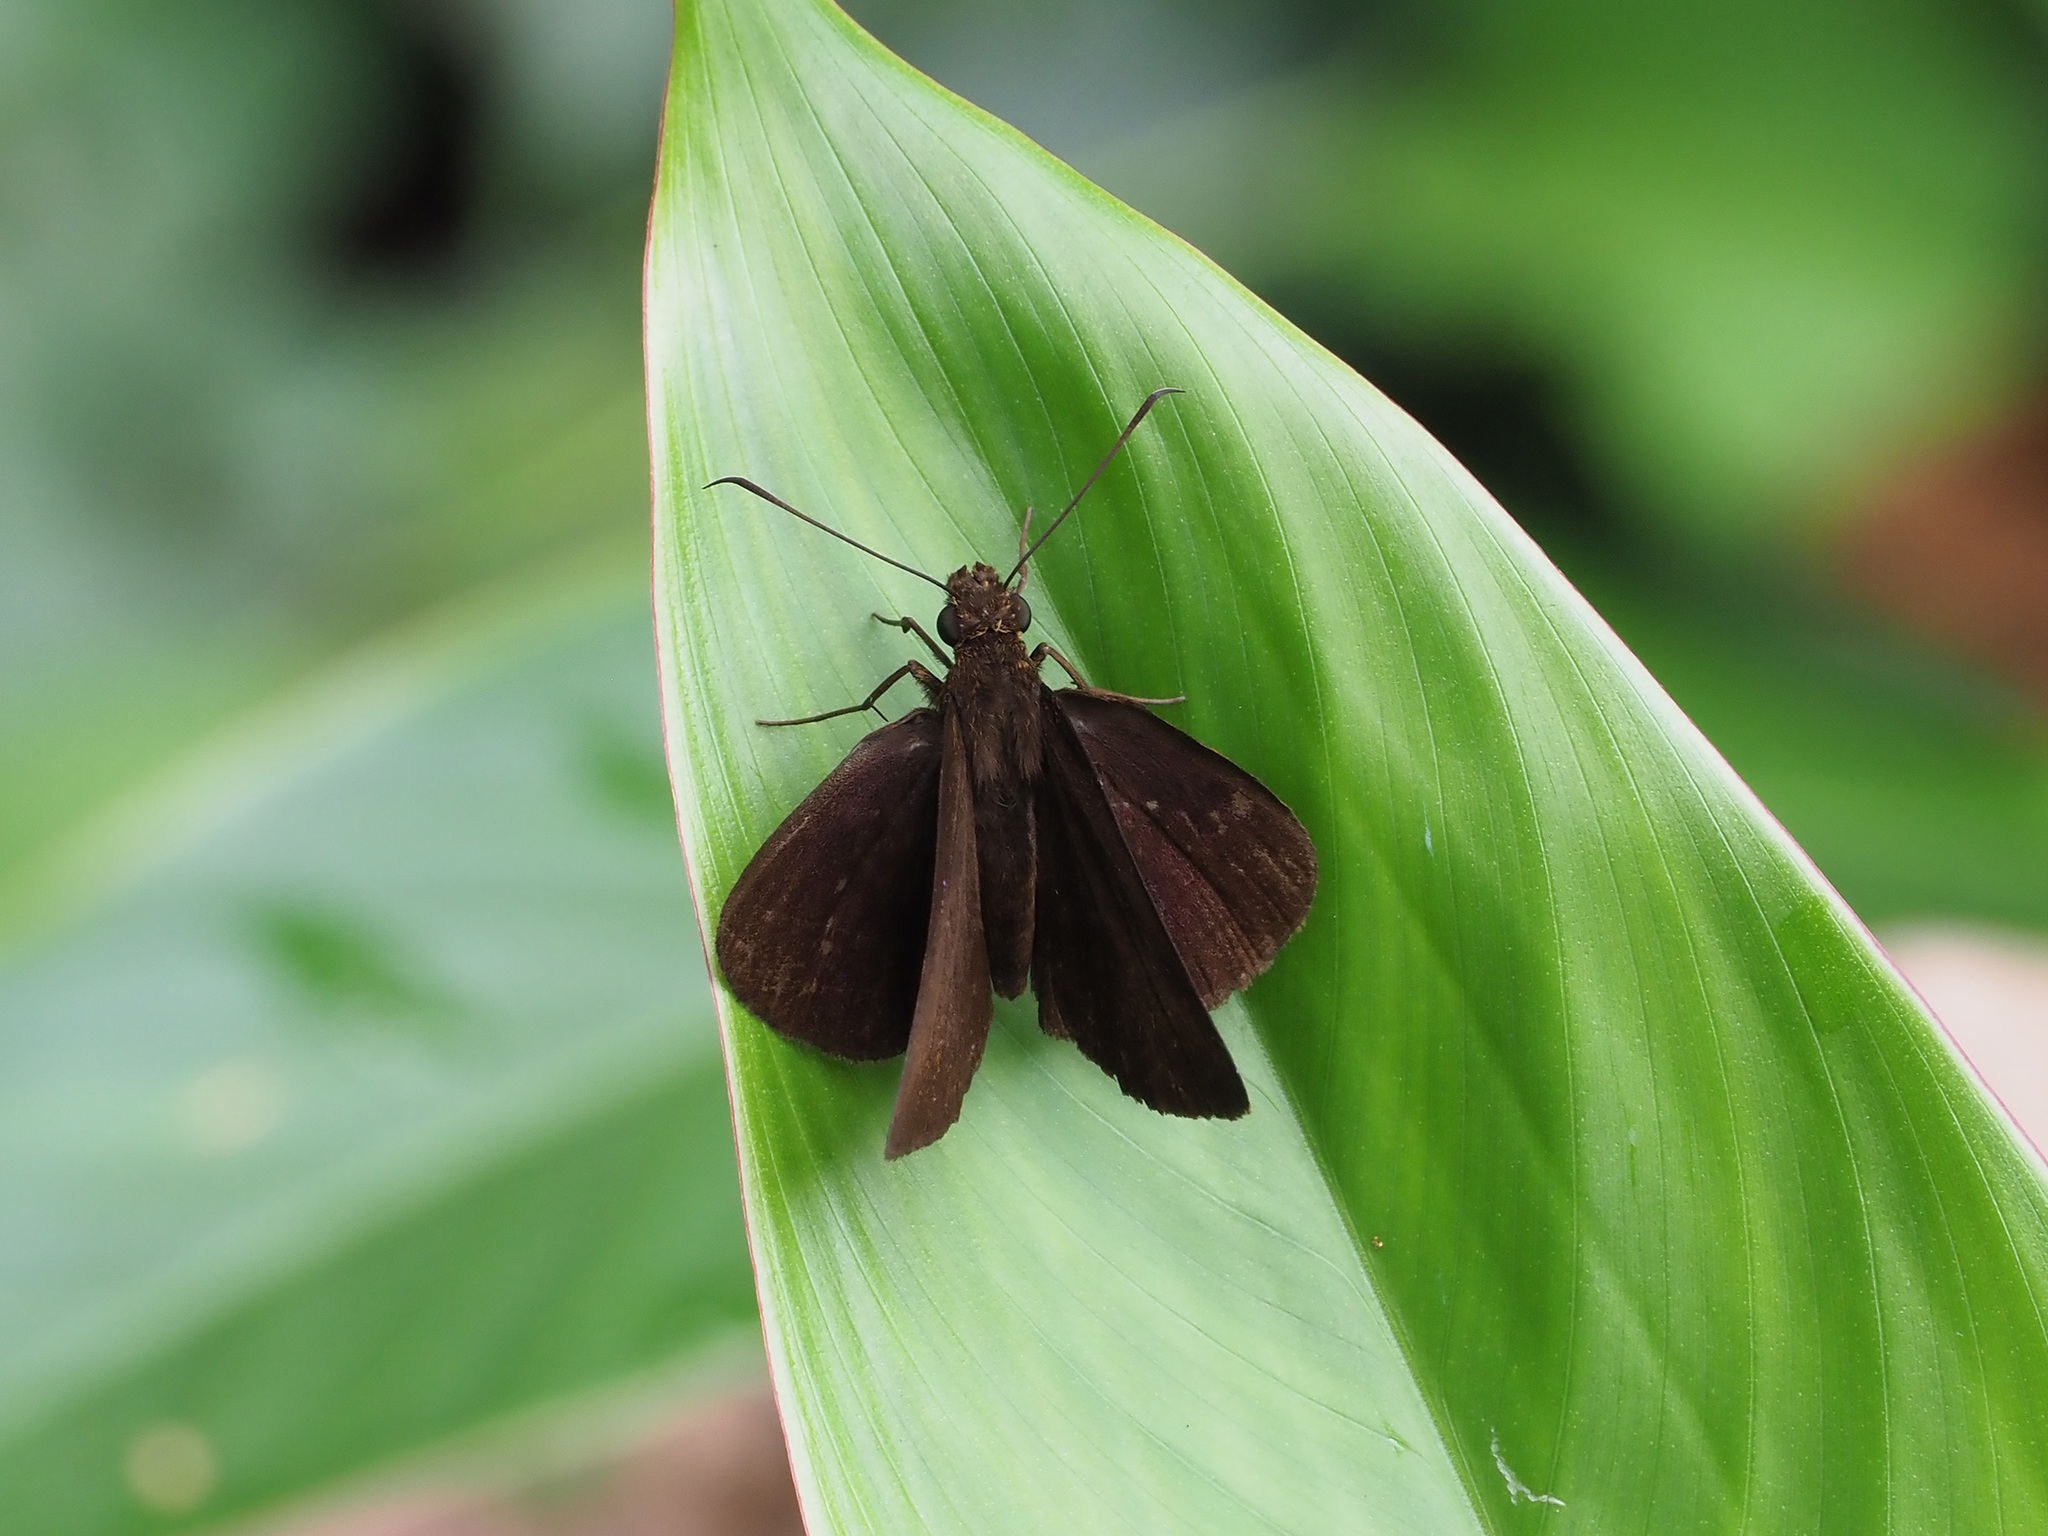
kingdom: Animalia
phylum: Arthropoda
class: Insecta
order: Lepidoptera
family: Hesperiidae
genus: Ancistroides
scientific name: Ancistroides nigrita
